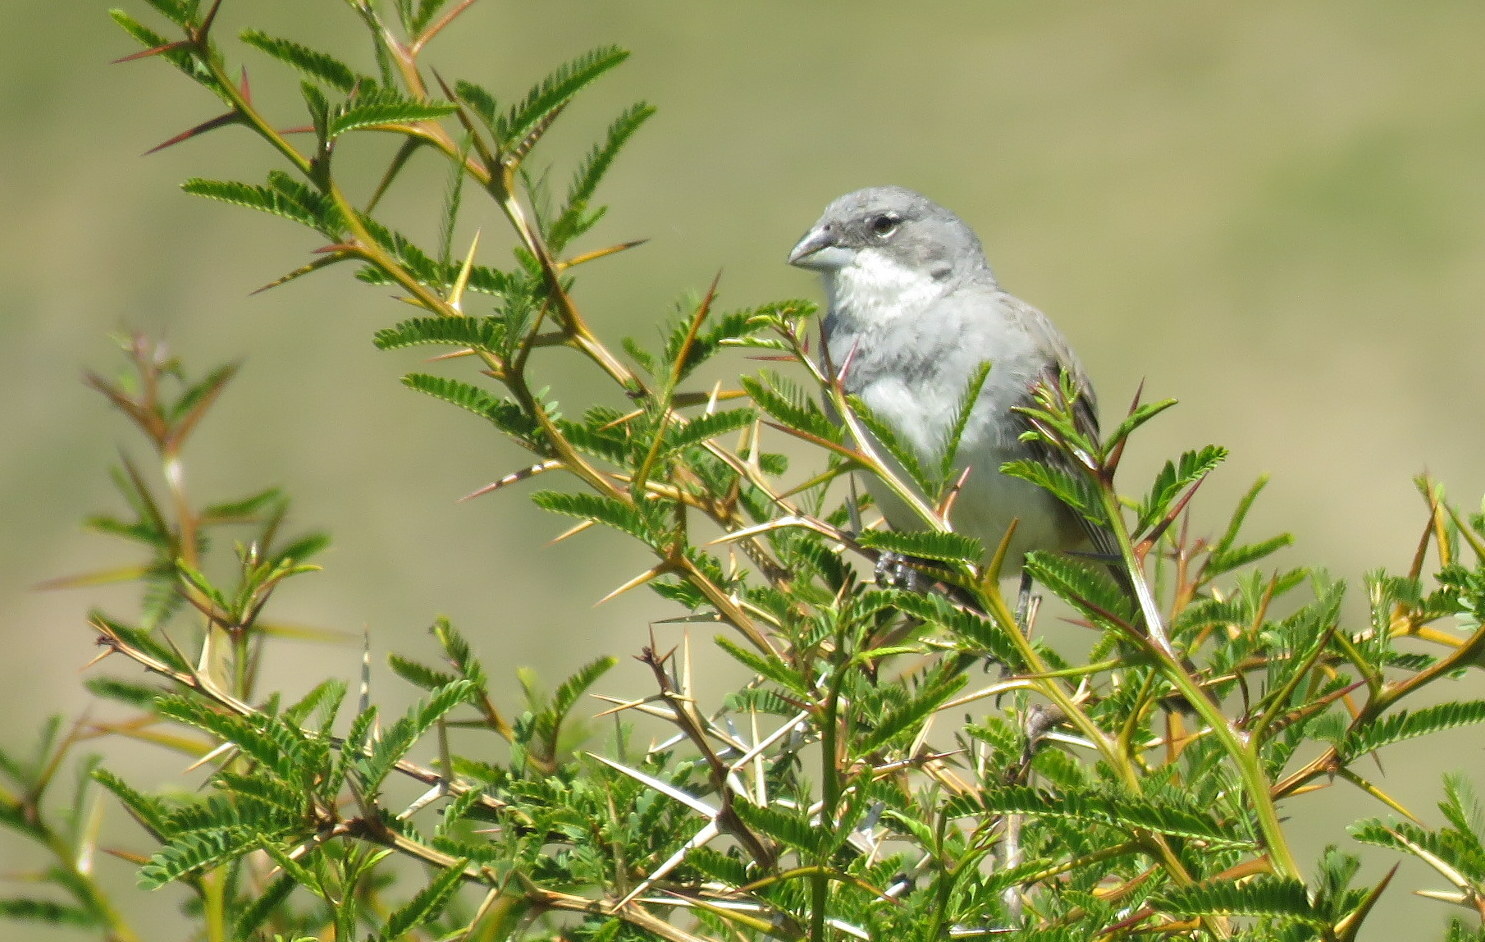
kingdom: Animalia
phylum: Chordata
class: Aves
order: Passeriformes
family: Thraupidae
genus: Diuca
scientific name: Diuca diuca
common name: Common diuca finch
